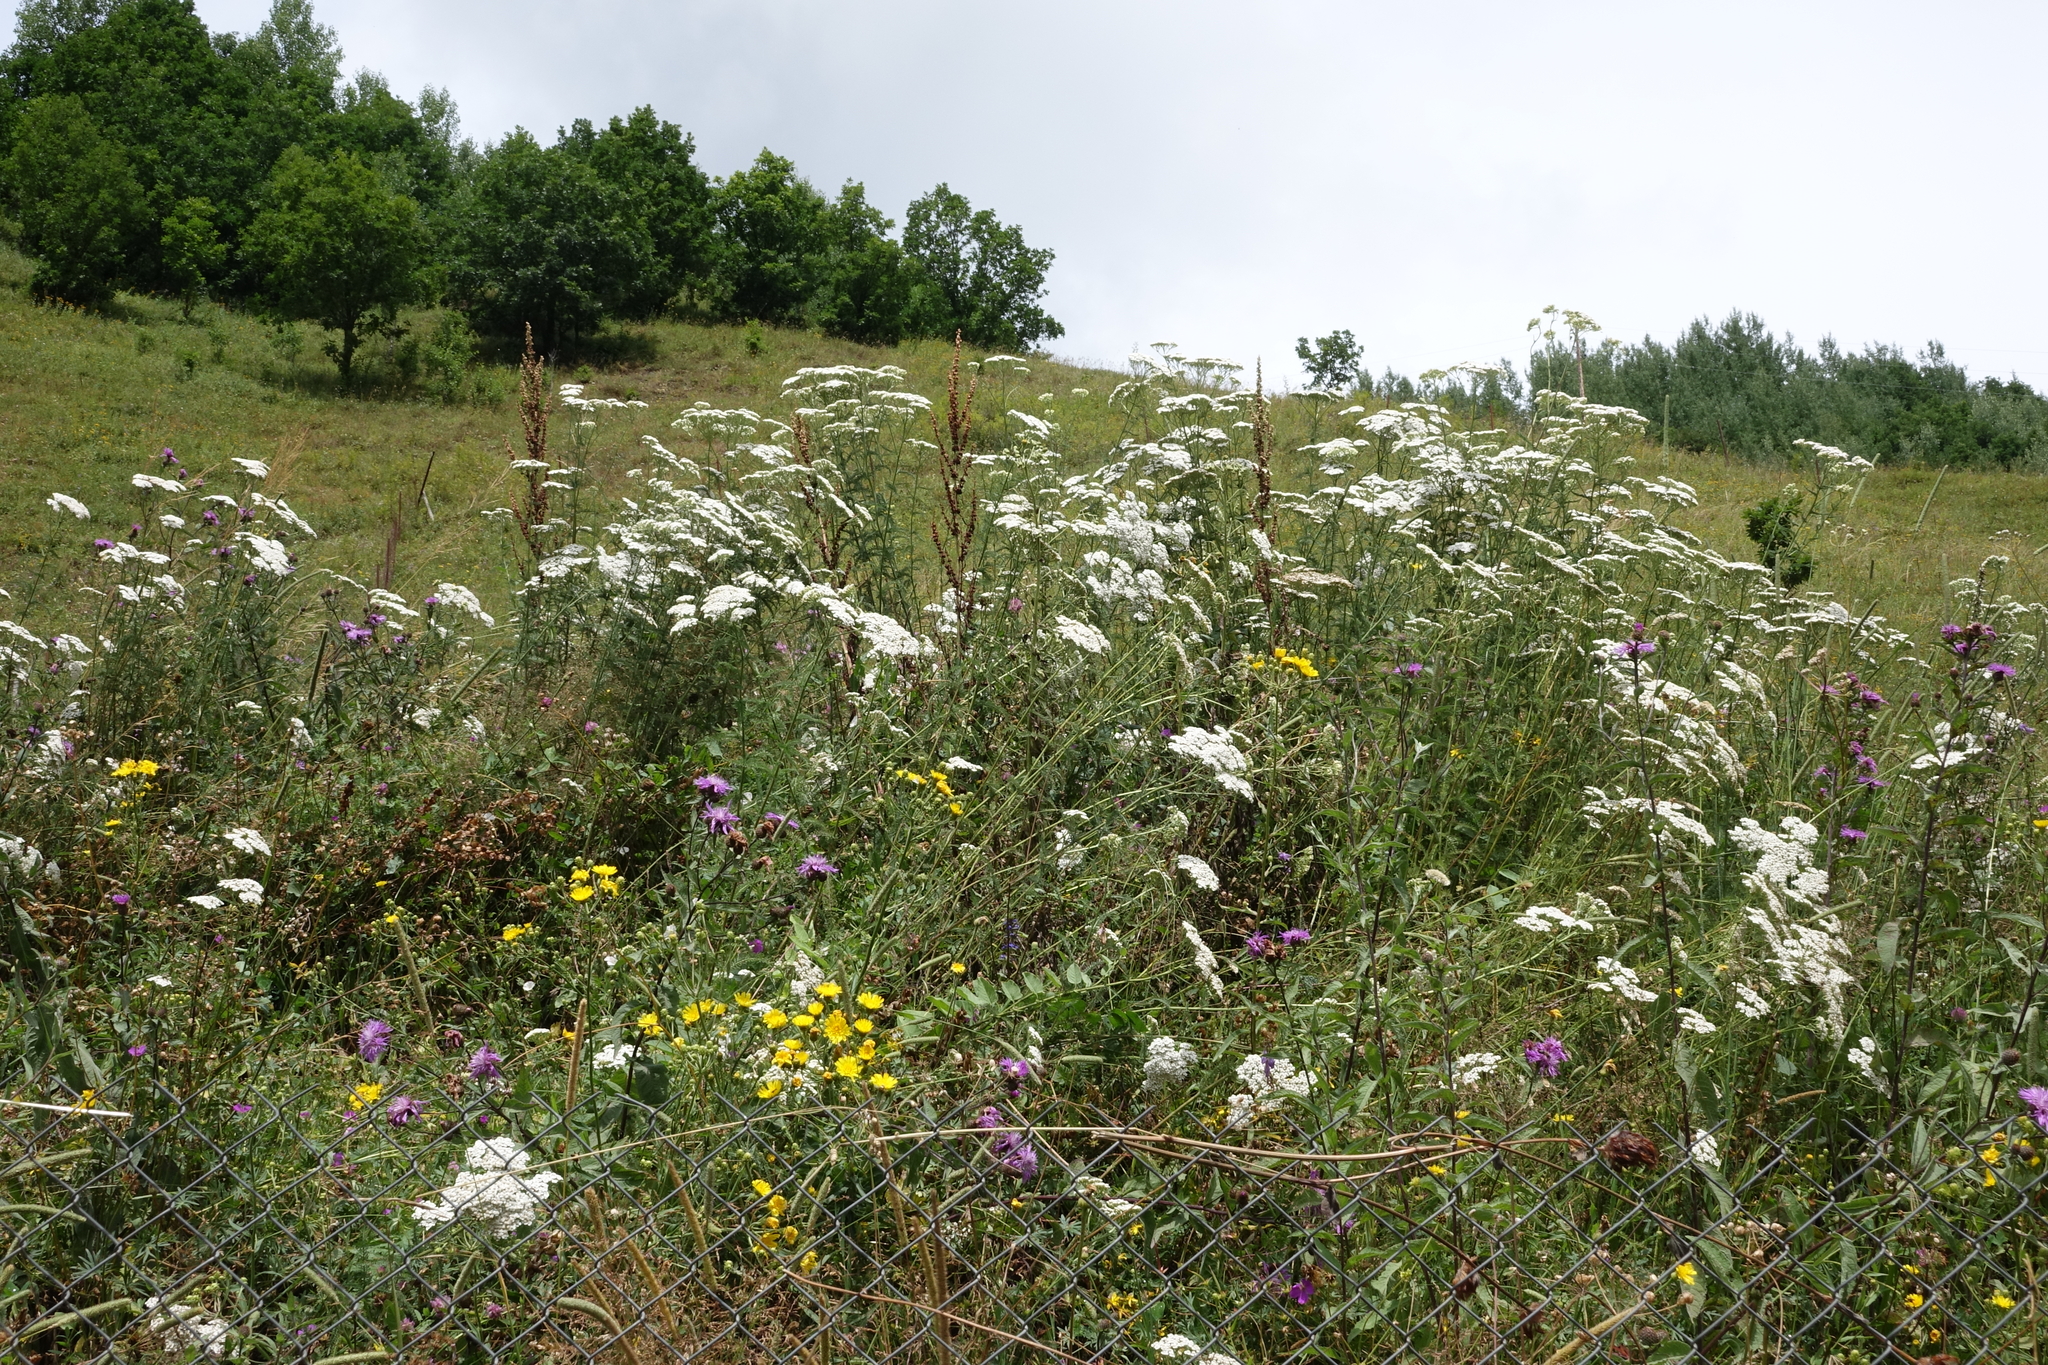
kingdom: Plantae
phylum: Tracheophyta
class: Magnoliopsida
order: Asterales
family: Asteraceae
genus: Achillea
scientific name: Achillea millefolium
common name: Yarrow
